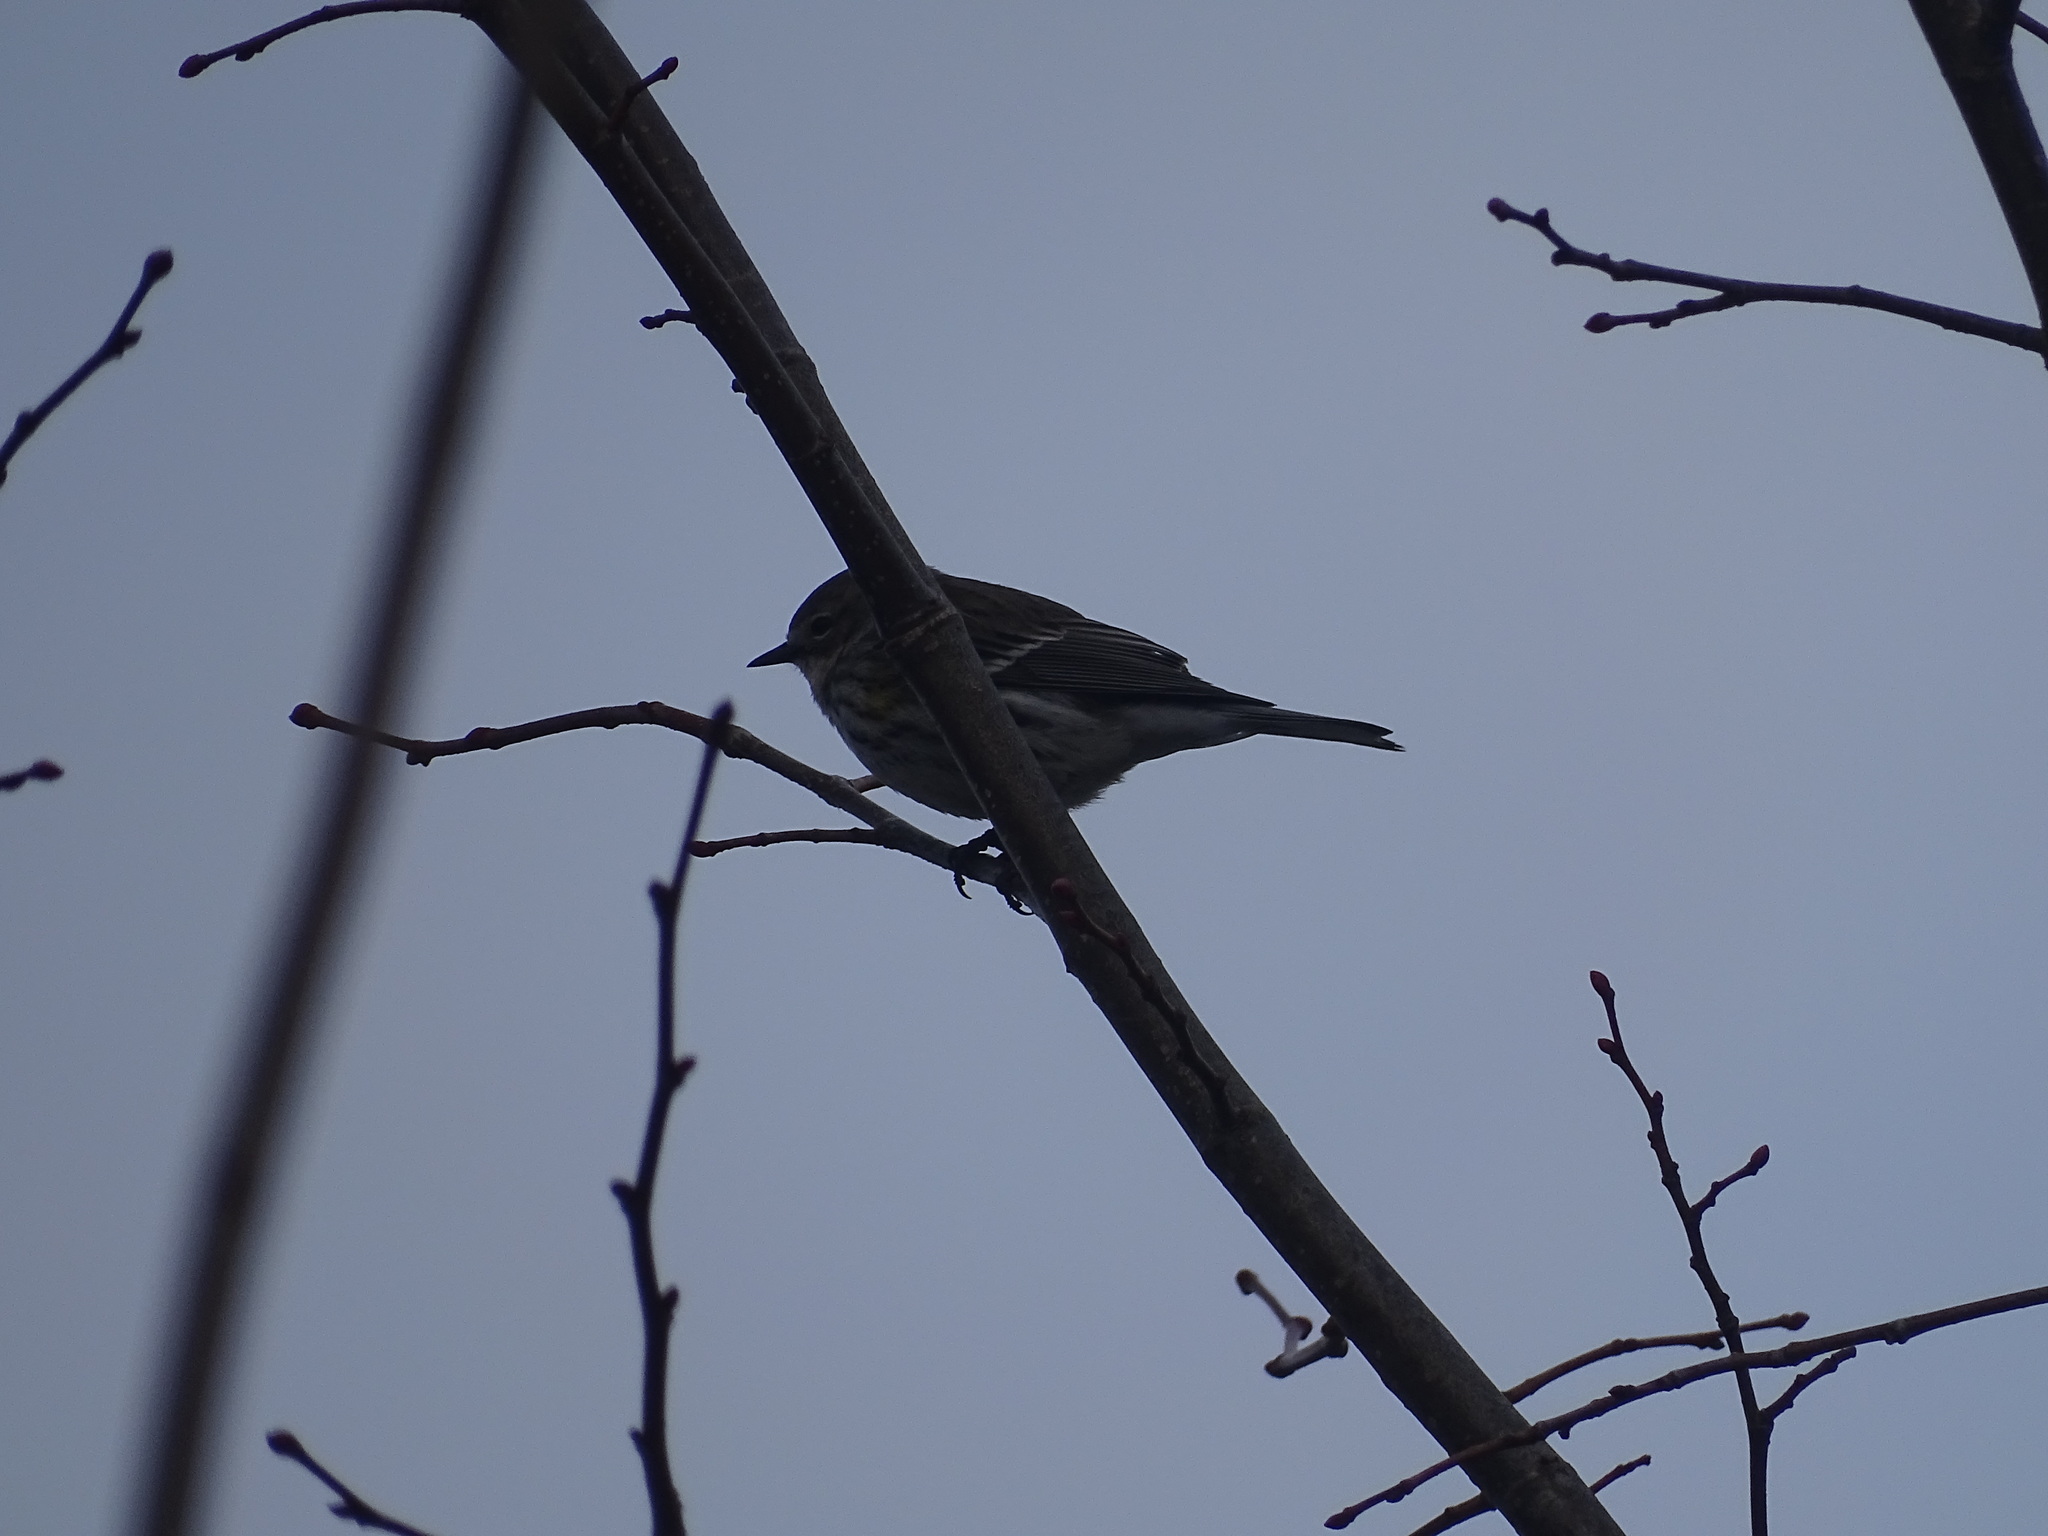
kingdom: Animalia
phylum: Chordata
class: Aves
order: Passeriformes
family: Parulidae
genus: Setophaga
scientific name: Setophaga coronata
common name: Myrtle warbler
